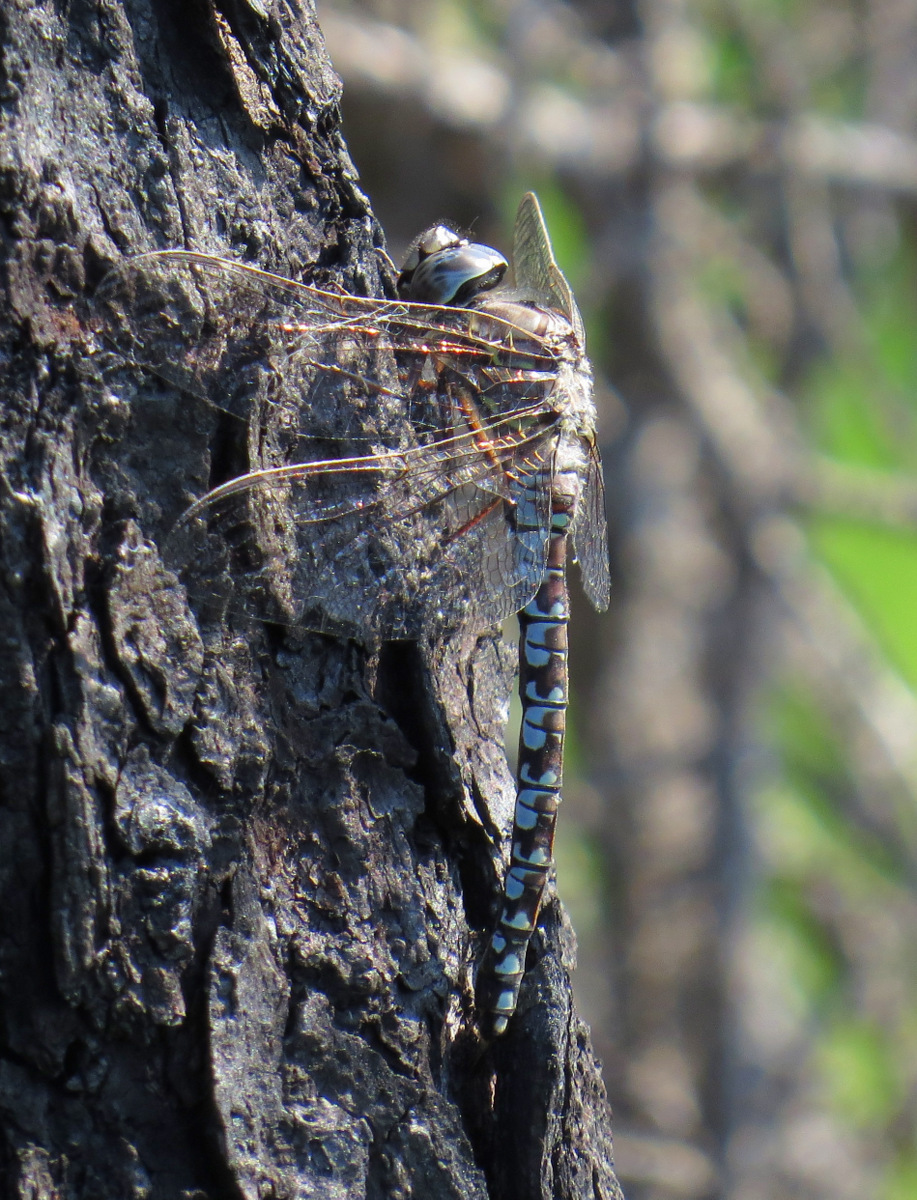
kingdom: Animalia
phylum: Arthropoda
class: Insecta
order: Odonata
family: Aeshnidae
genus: Aeshna
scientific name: Aeshna sitchensis
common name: Zigzag darner
